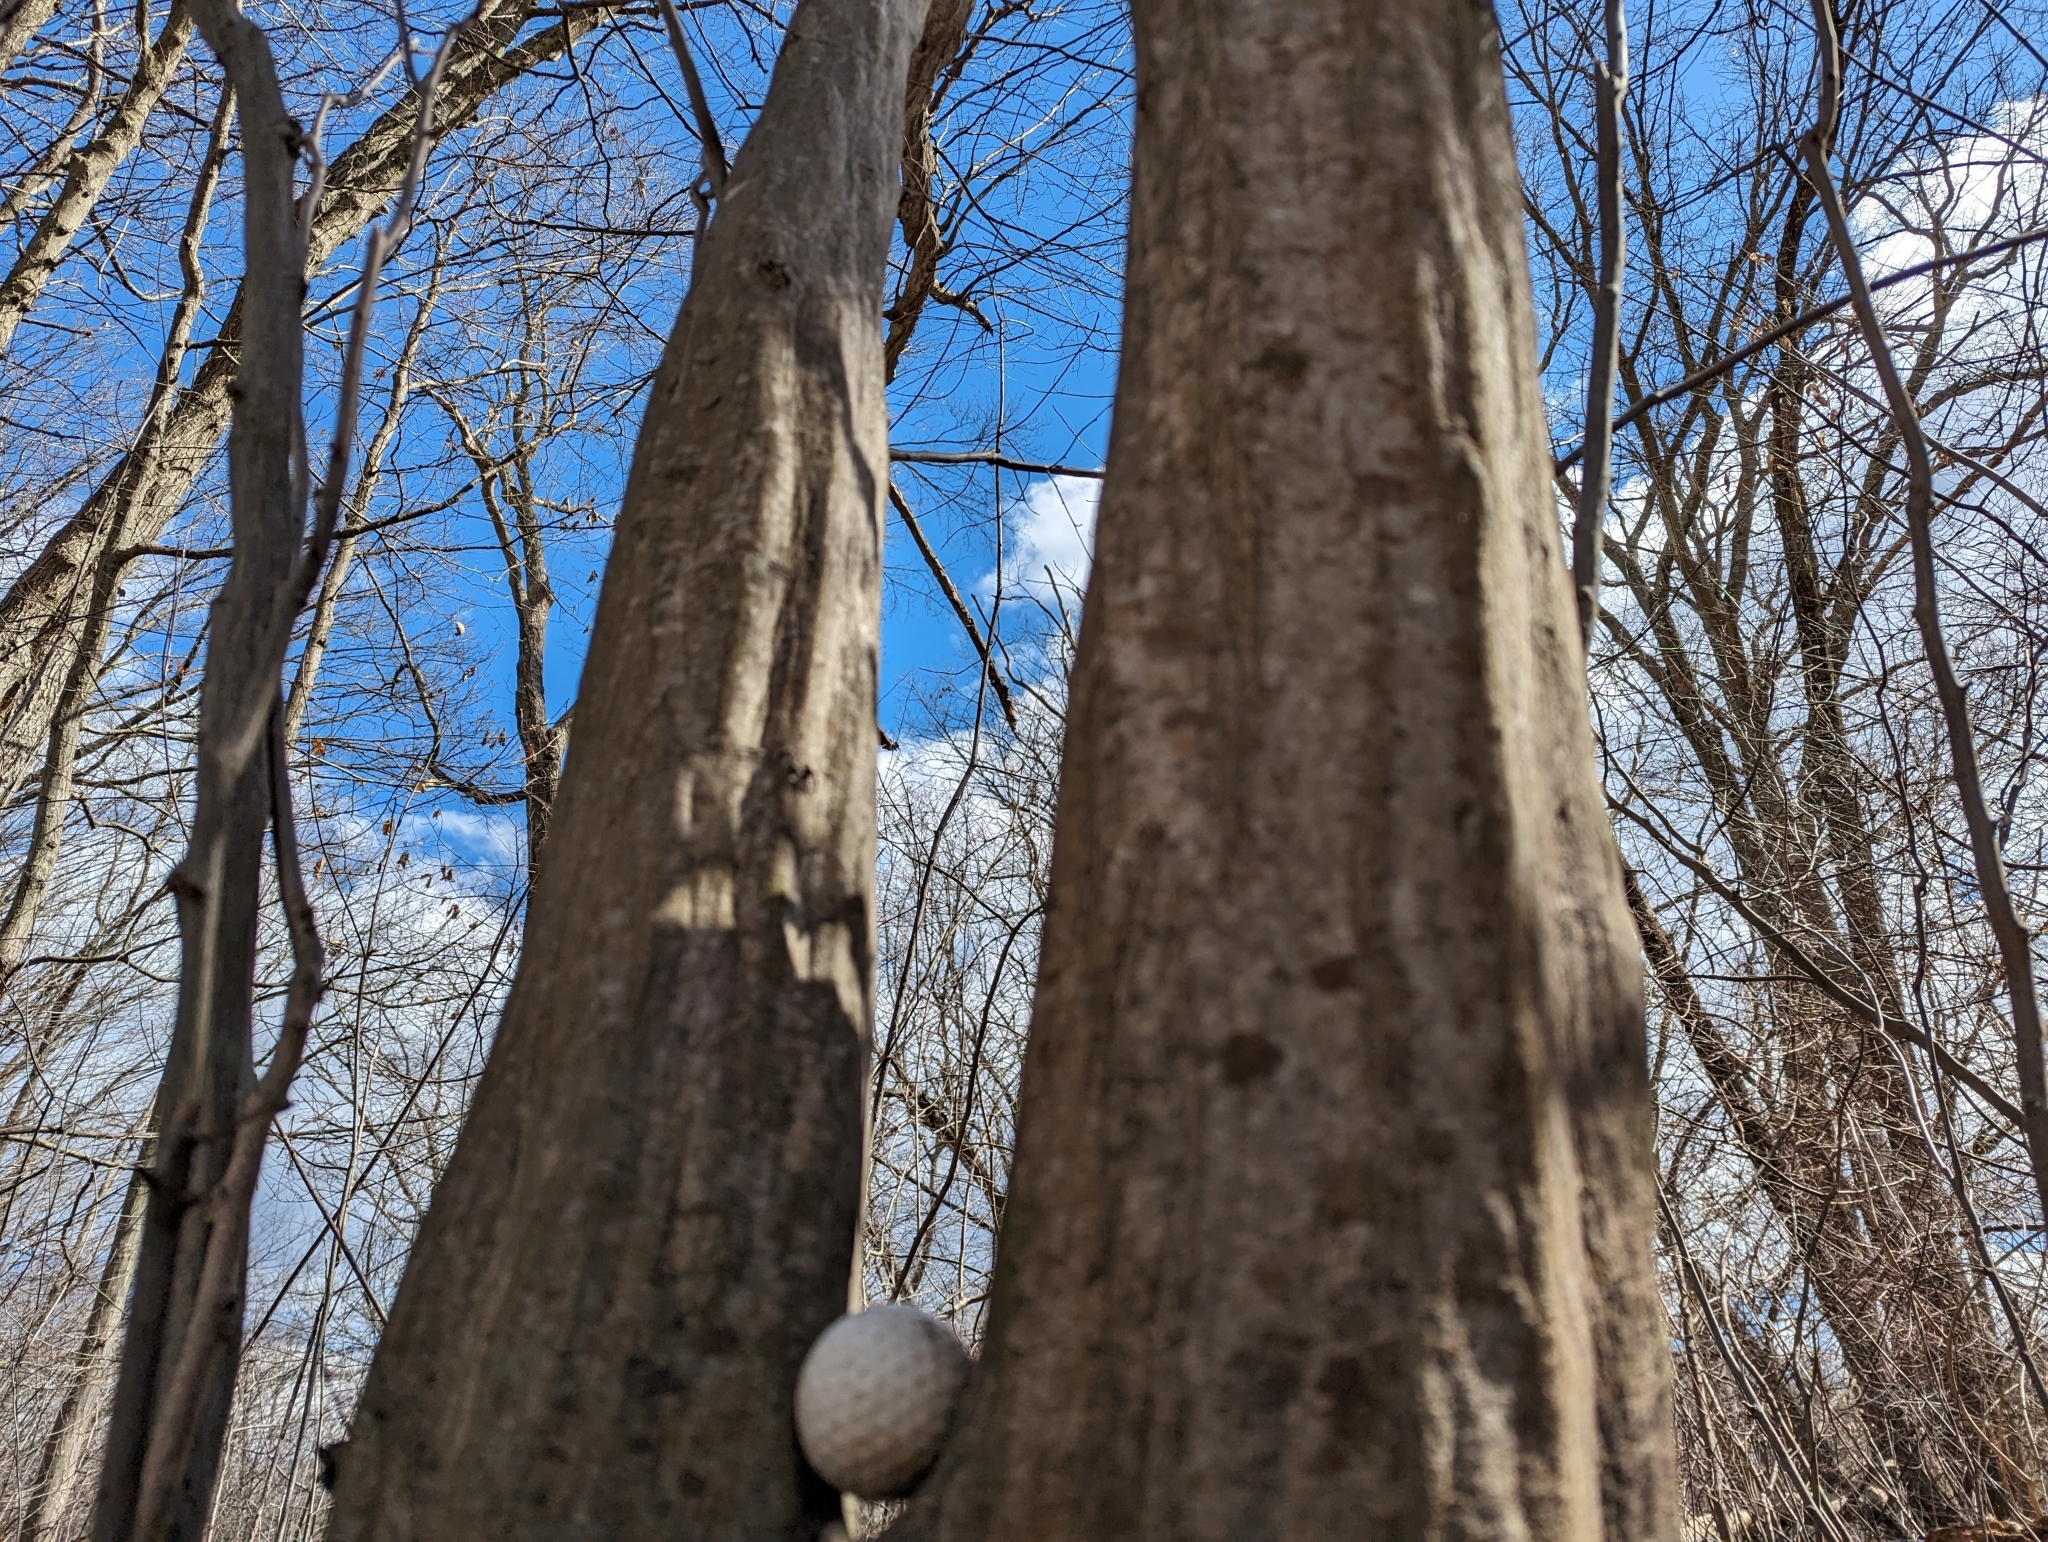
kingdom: Plantae
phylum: Tracheophyta
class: Magnoliopsida
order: Fagales
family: Betulaceae
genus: Carpinus
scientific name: Carpinus caroliniana
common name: American hornbeam
